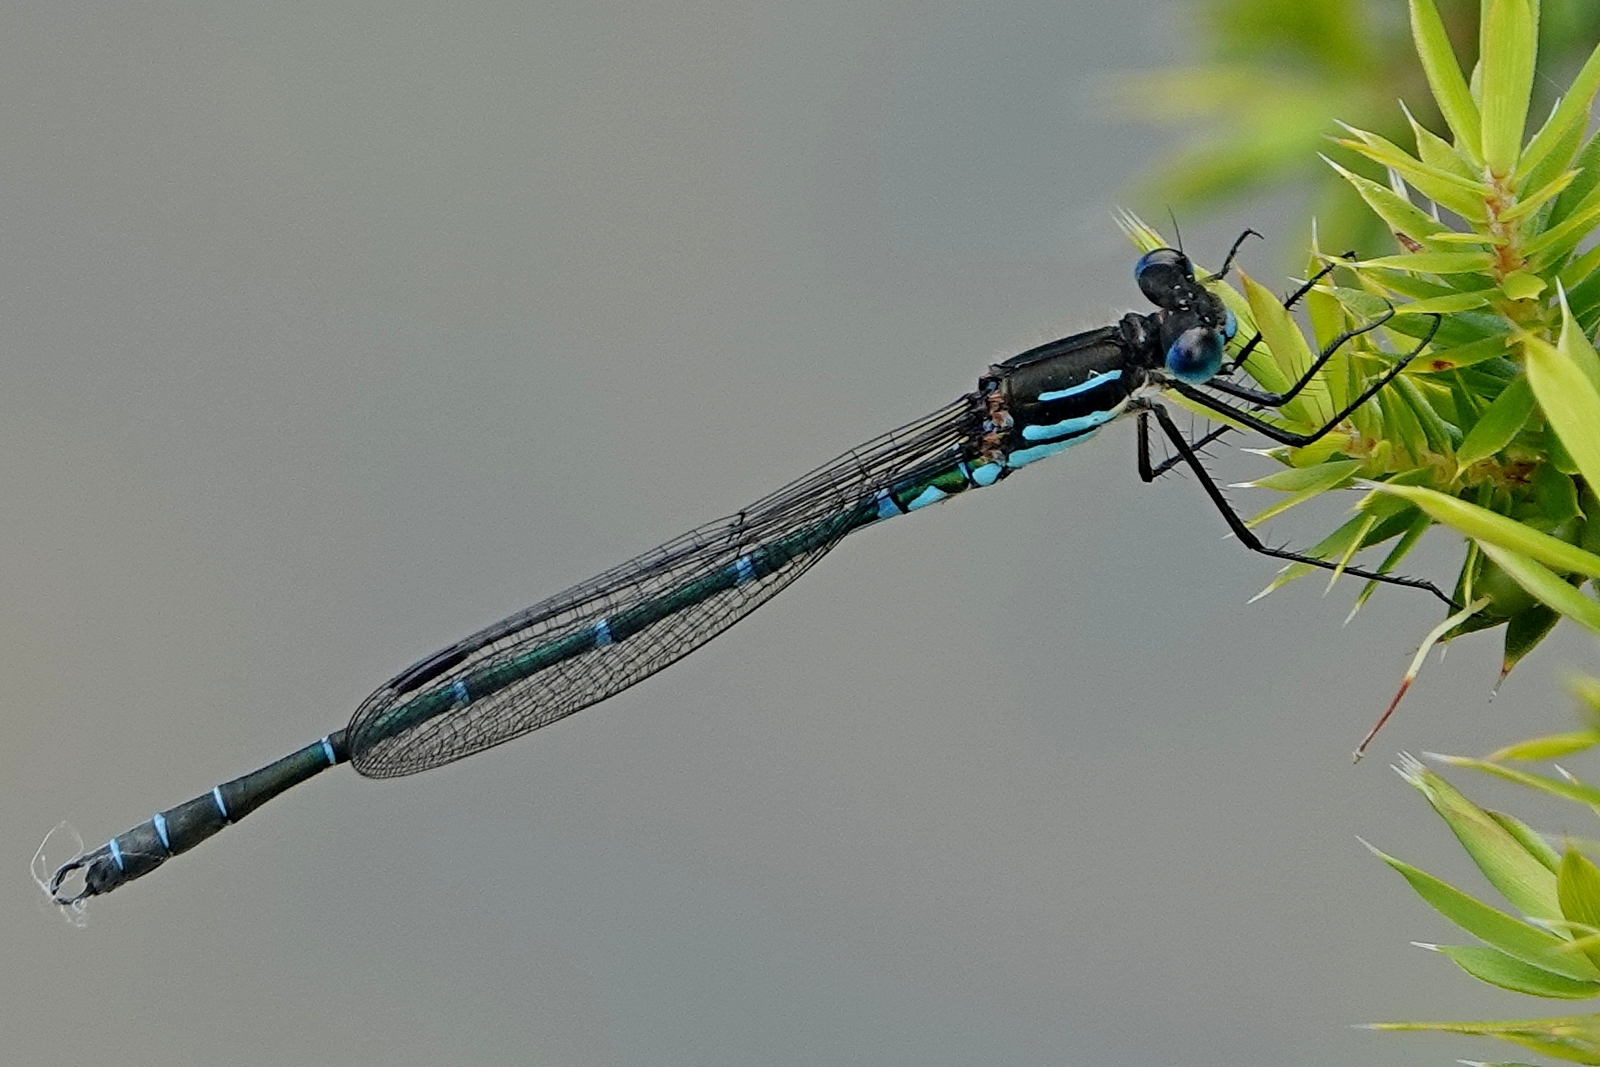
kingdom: Animalia
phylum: Arthropoda
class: Insecta
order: Odonata
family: Lestidae
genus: Austrolestes
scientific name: Austrolestes psyche
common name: Cup ringtail
